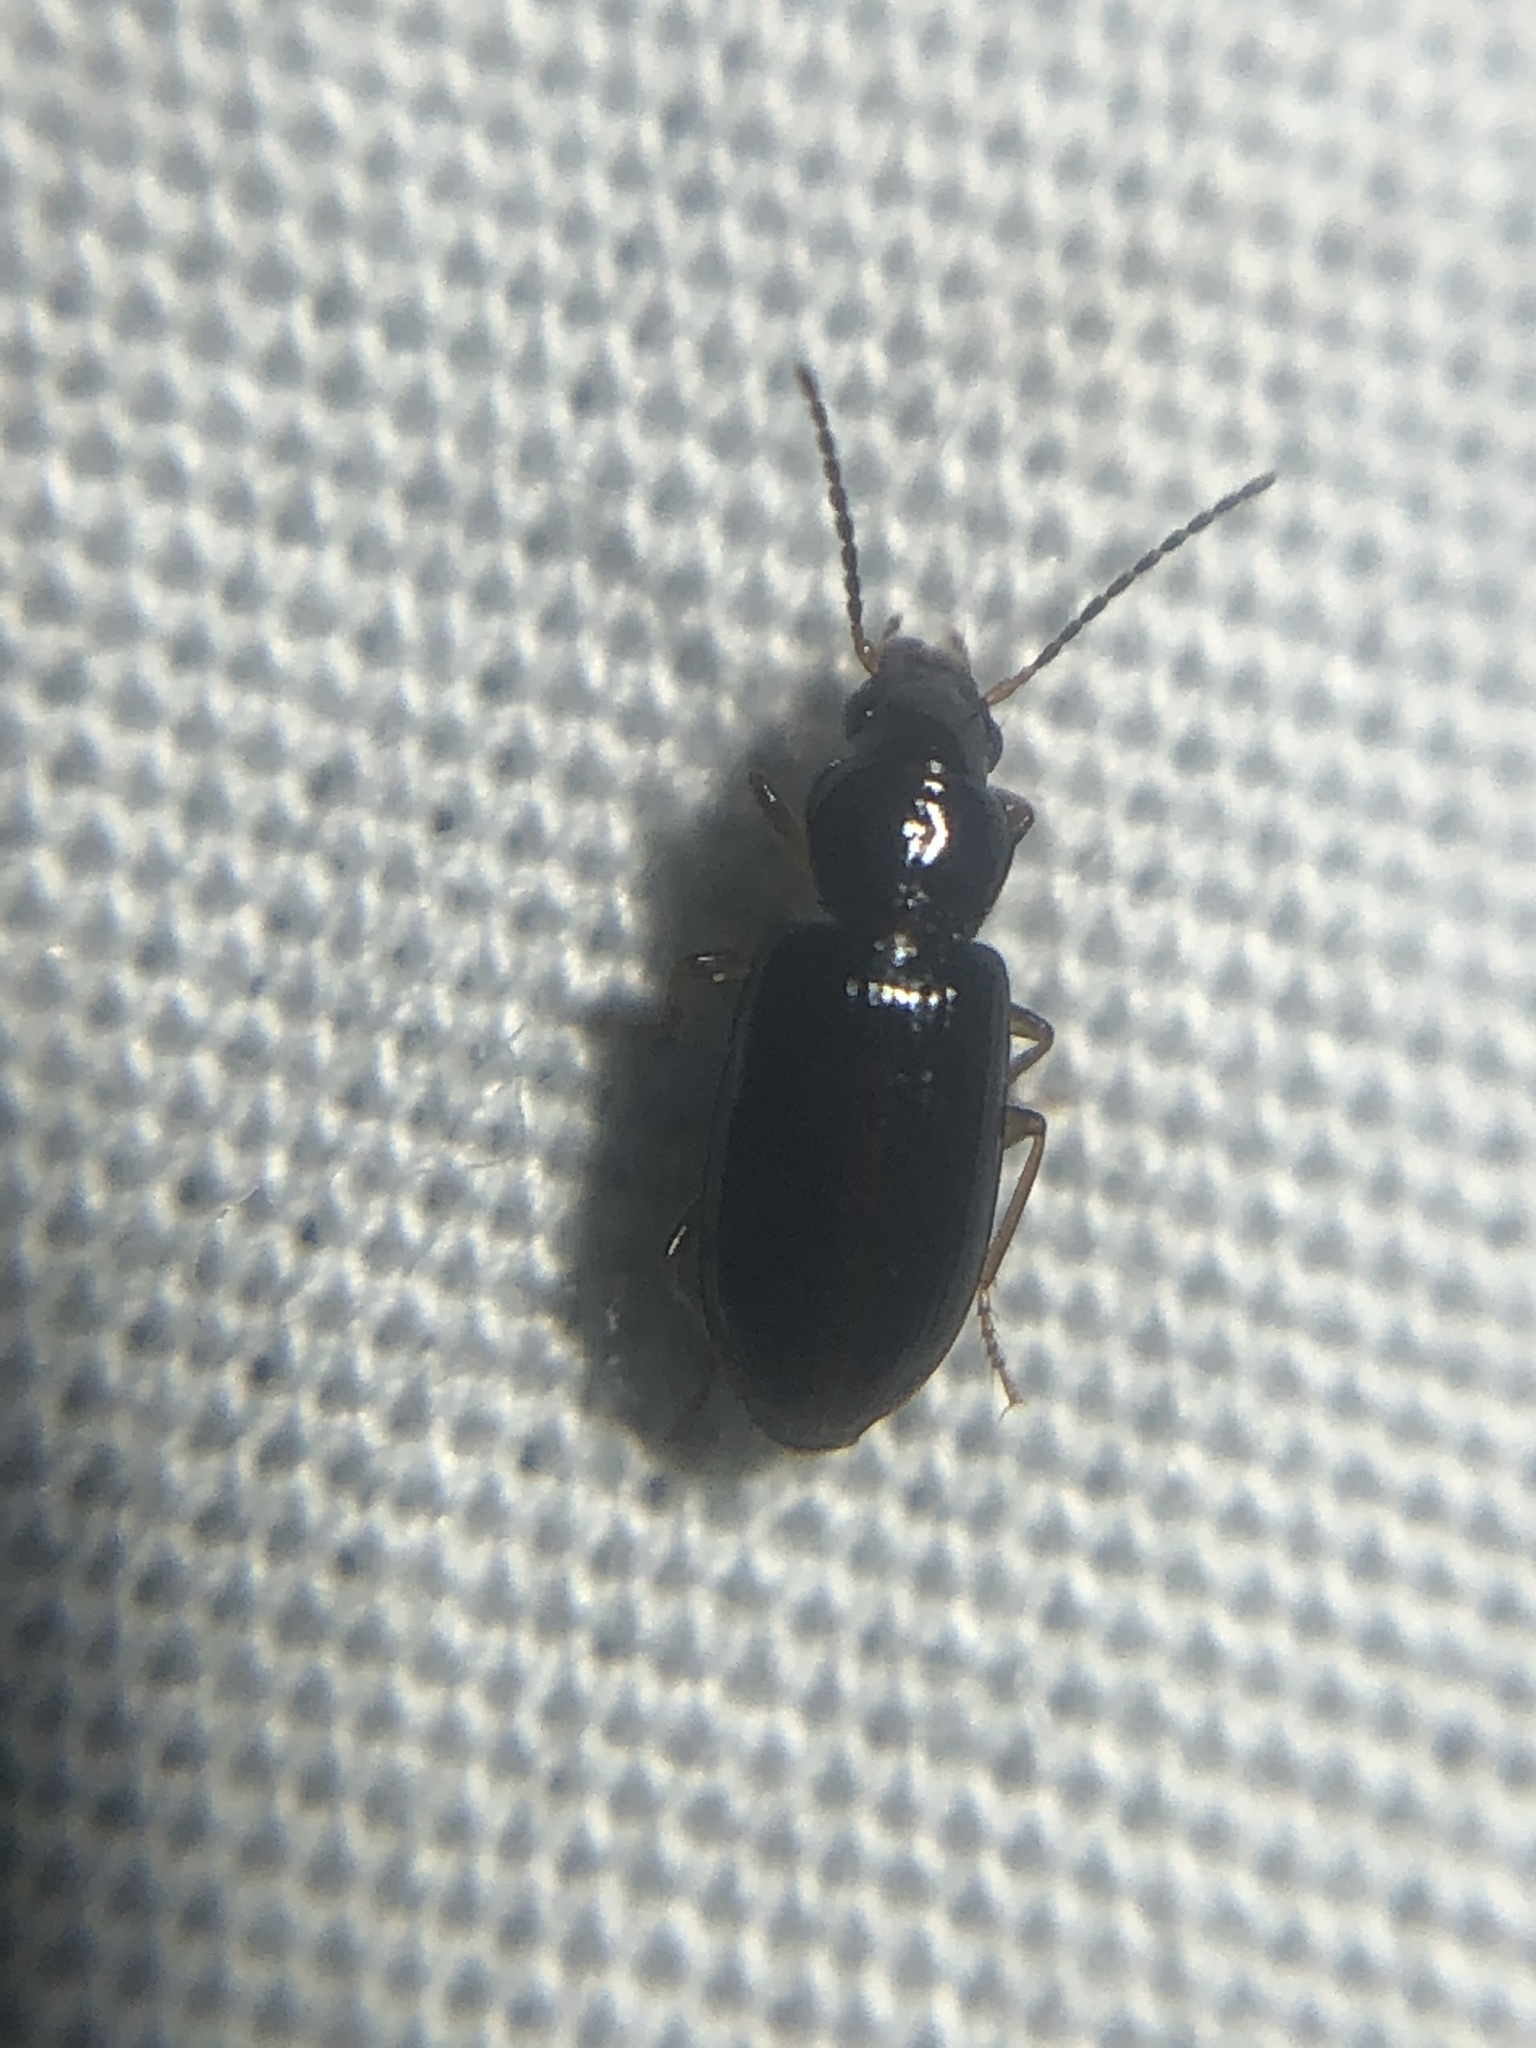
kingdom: Animalia
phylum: Arthropoda
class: Insecta
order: Coleoptera
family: Carabidae
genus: Bradycellus
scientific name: Bradycellus californicus
